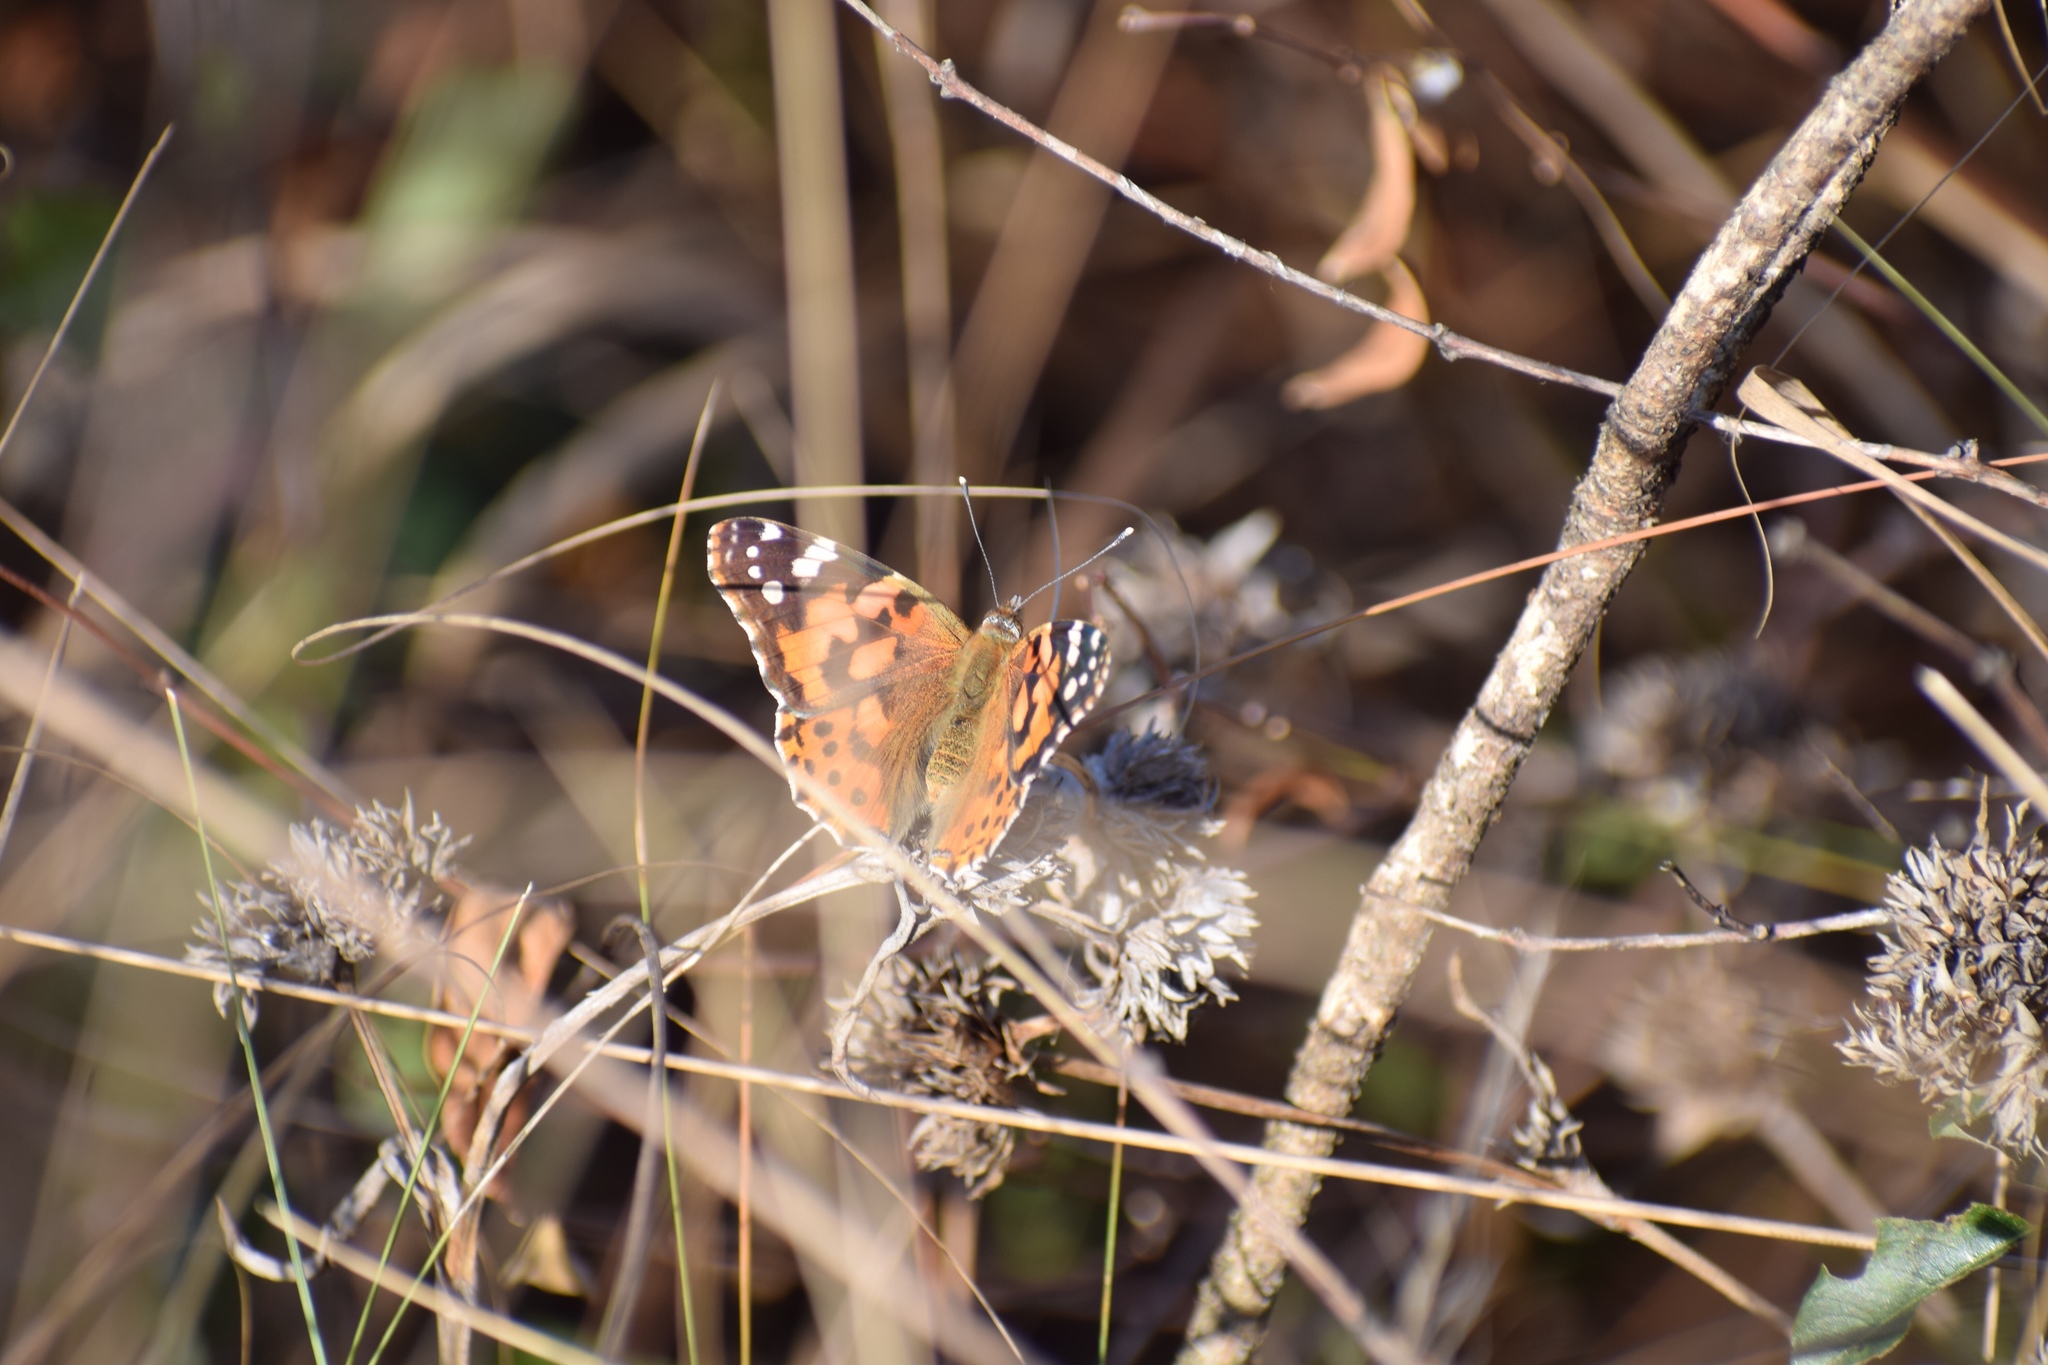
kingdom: Animalia
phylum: Arthropoda
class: Insecta
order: Lepidoptera
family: Nymphalidae
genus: Vanessa
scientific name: Vanessa cardui
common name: Painted lady
